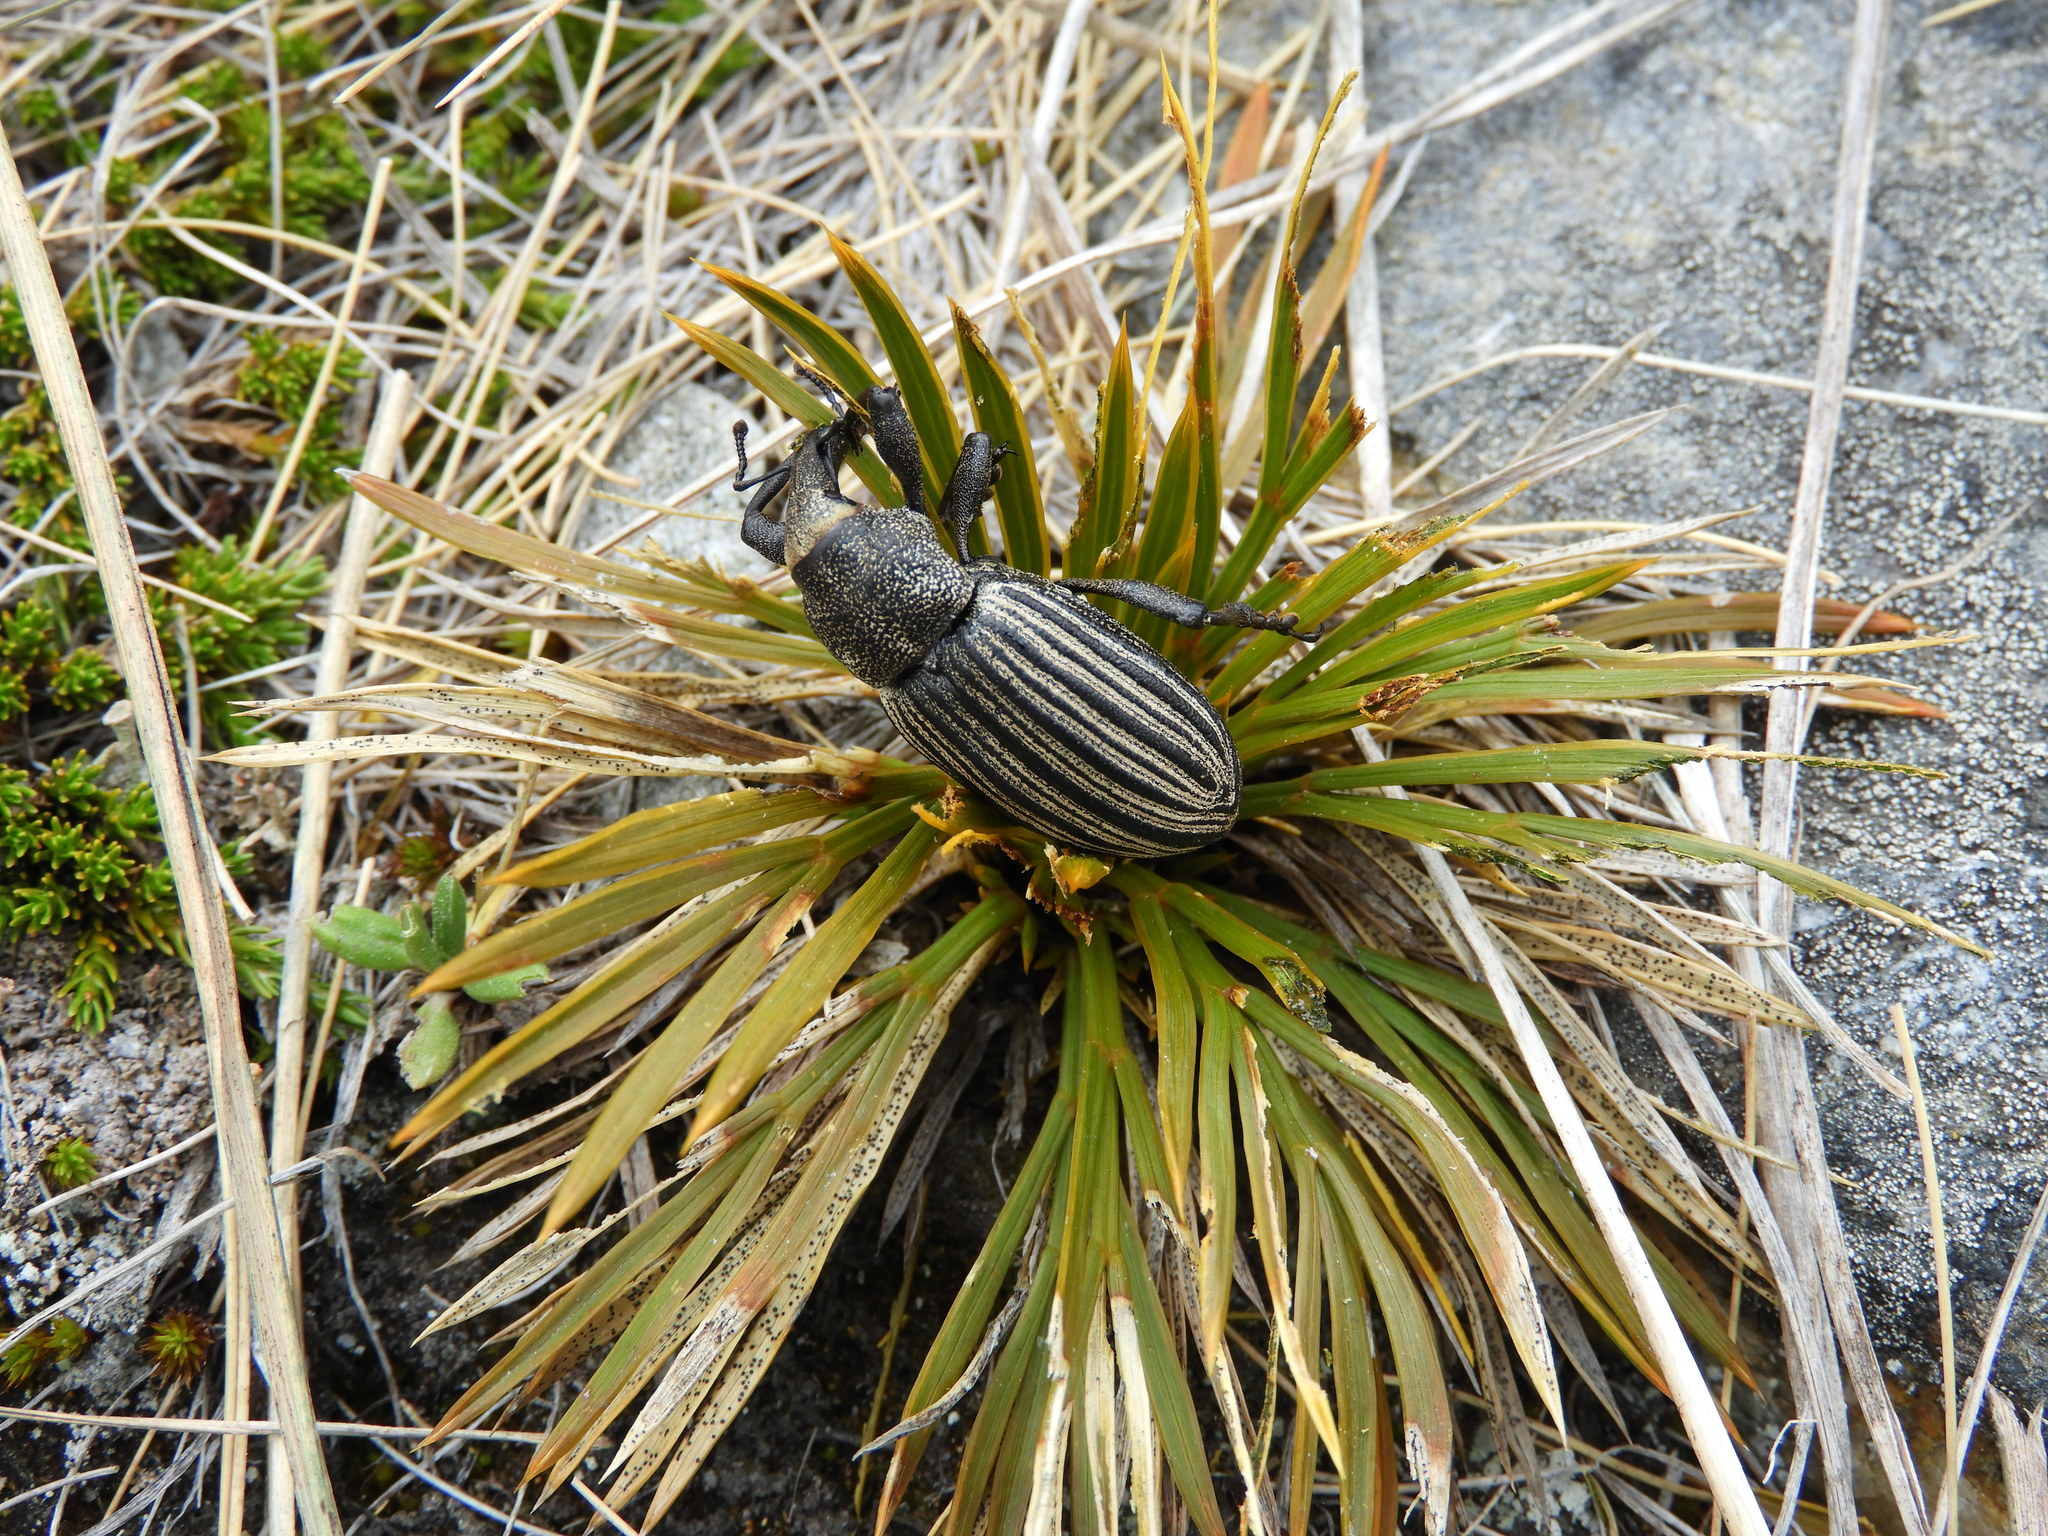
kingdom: Animalia
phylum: Arthropoda
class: Insecta
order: Coleoptera
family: Curculionidae
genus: Lyperobius
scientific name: Lyperobius cupiendus
